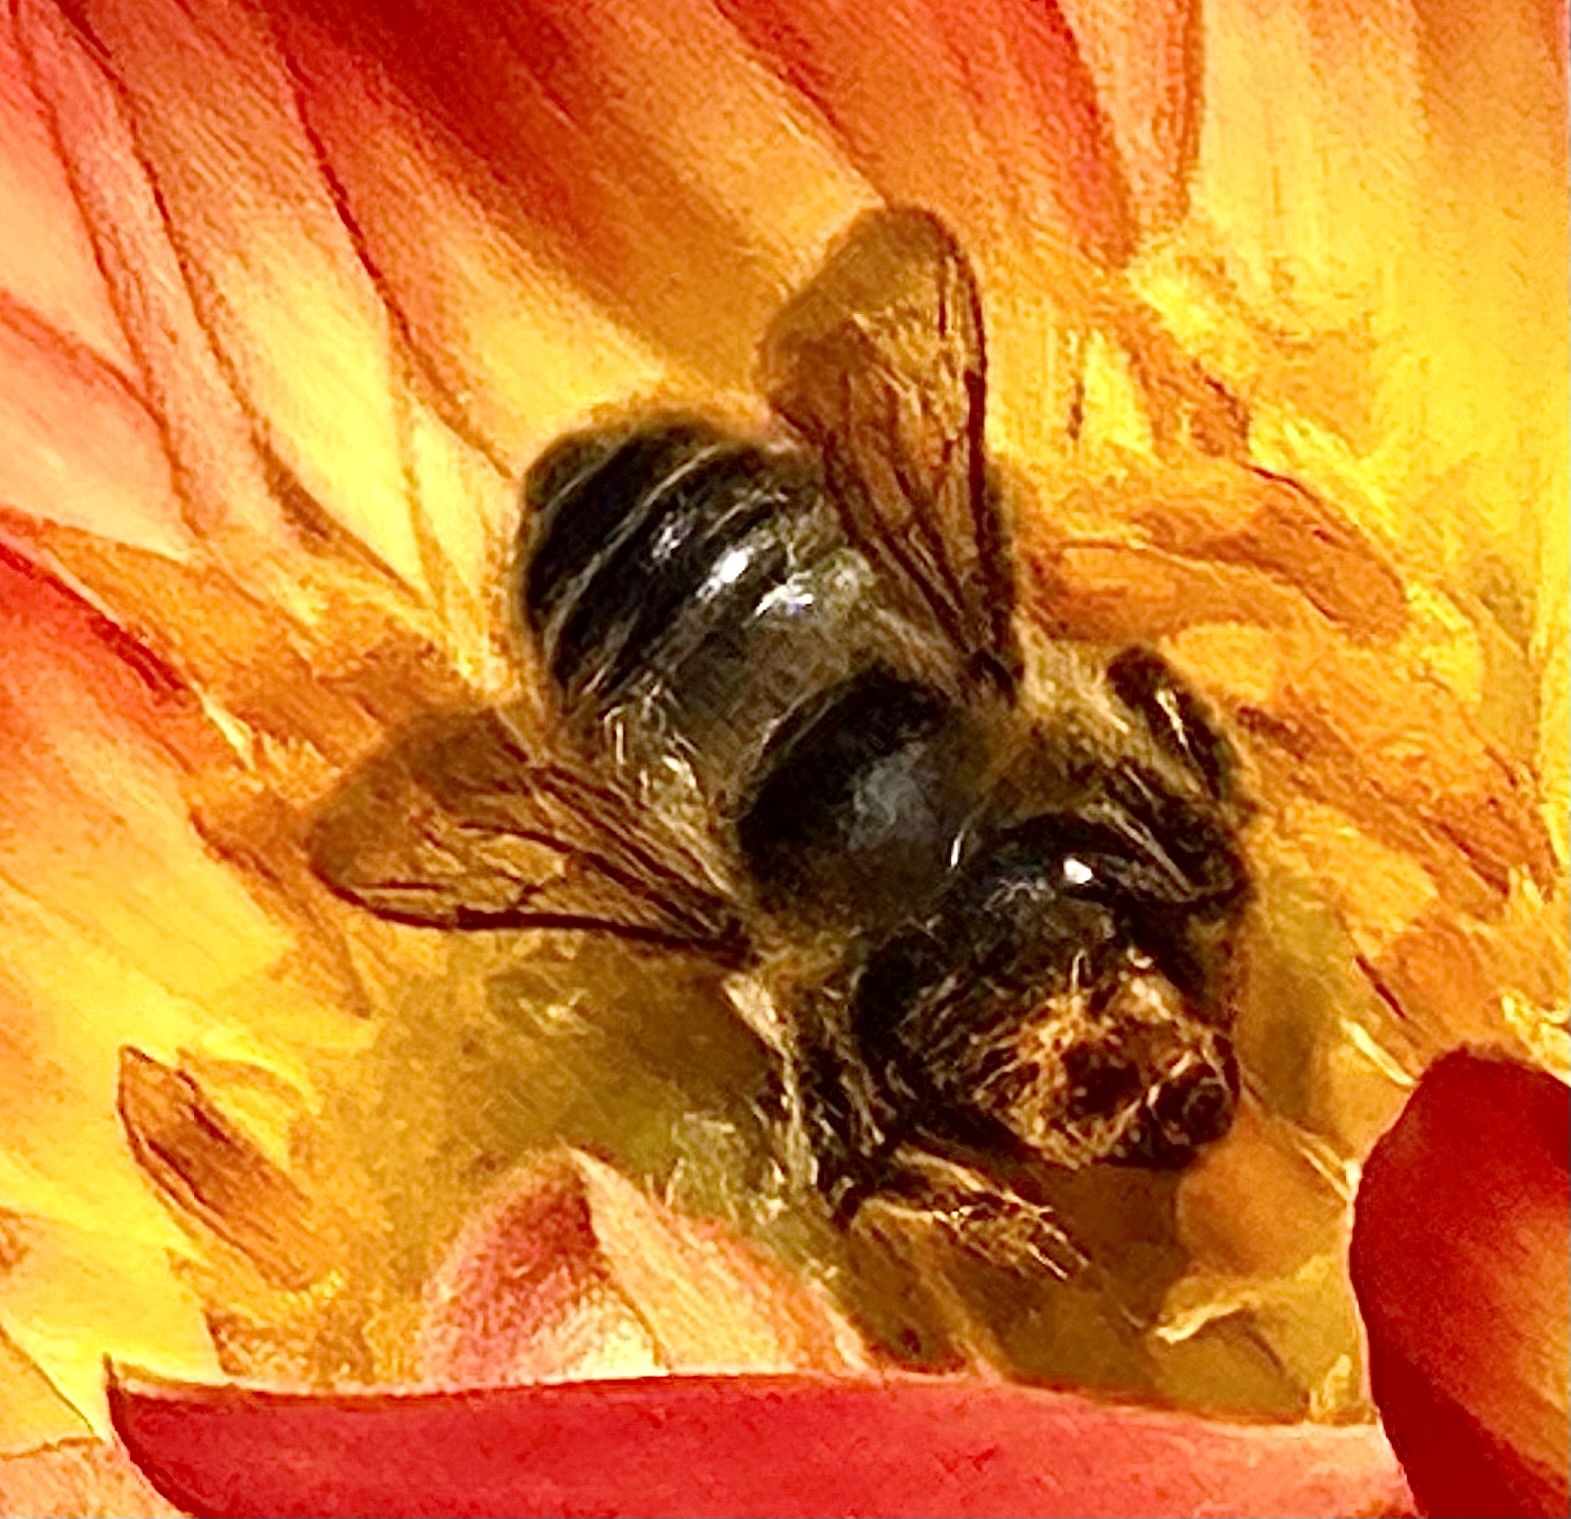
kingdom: Animalia
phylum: Arthropoda
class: Insecta
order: Hymenoptera
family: Megachilidae
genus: Megachile
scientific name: Megachile perihirta
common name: Western leafcutter
